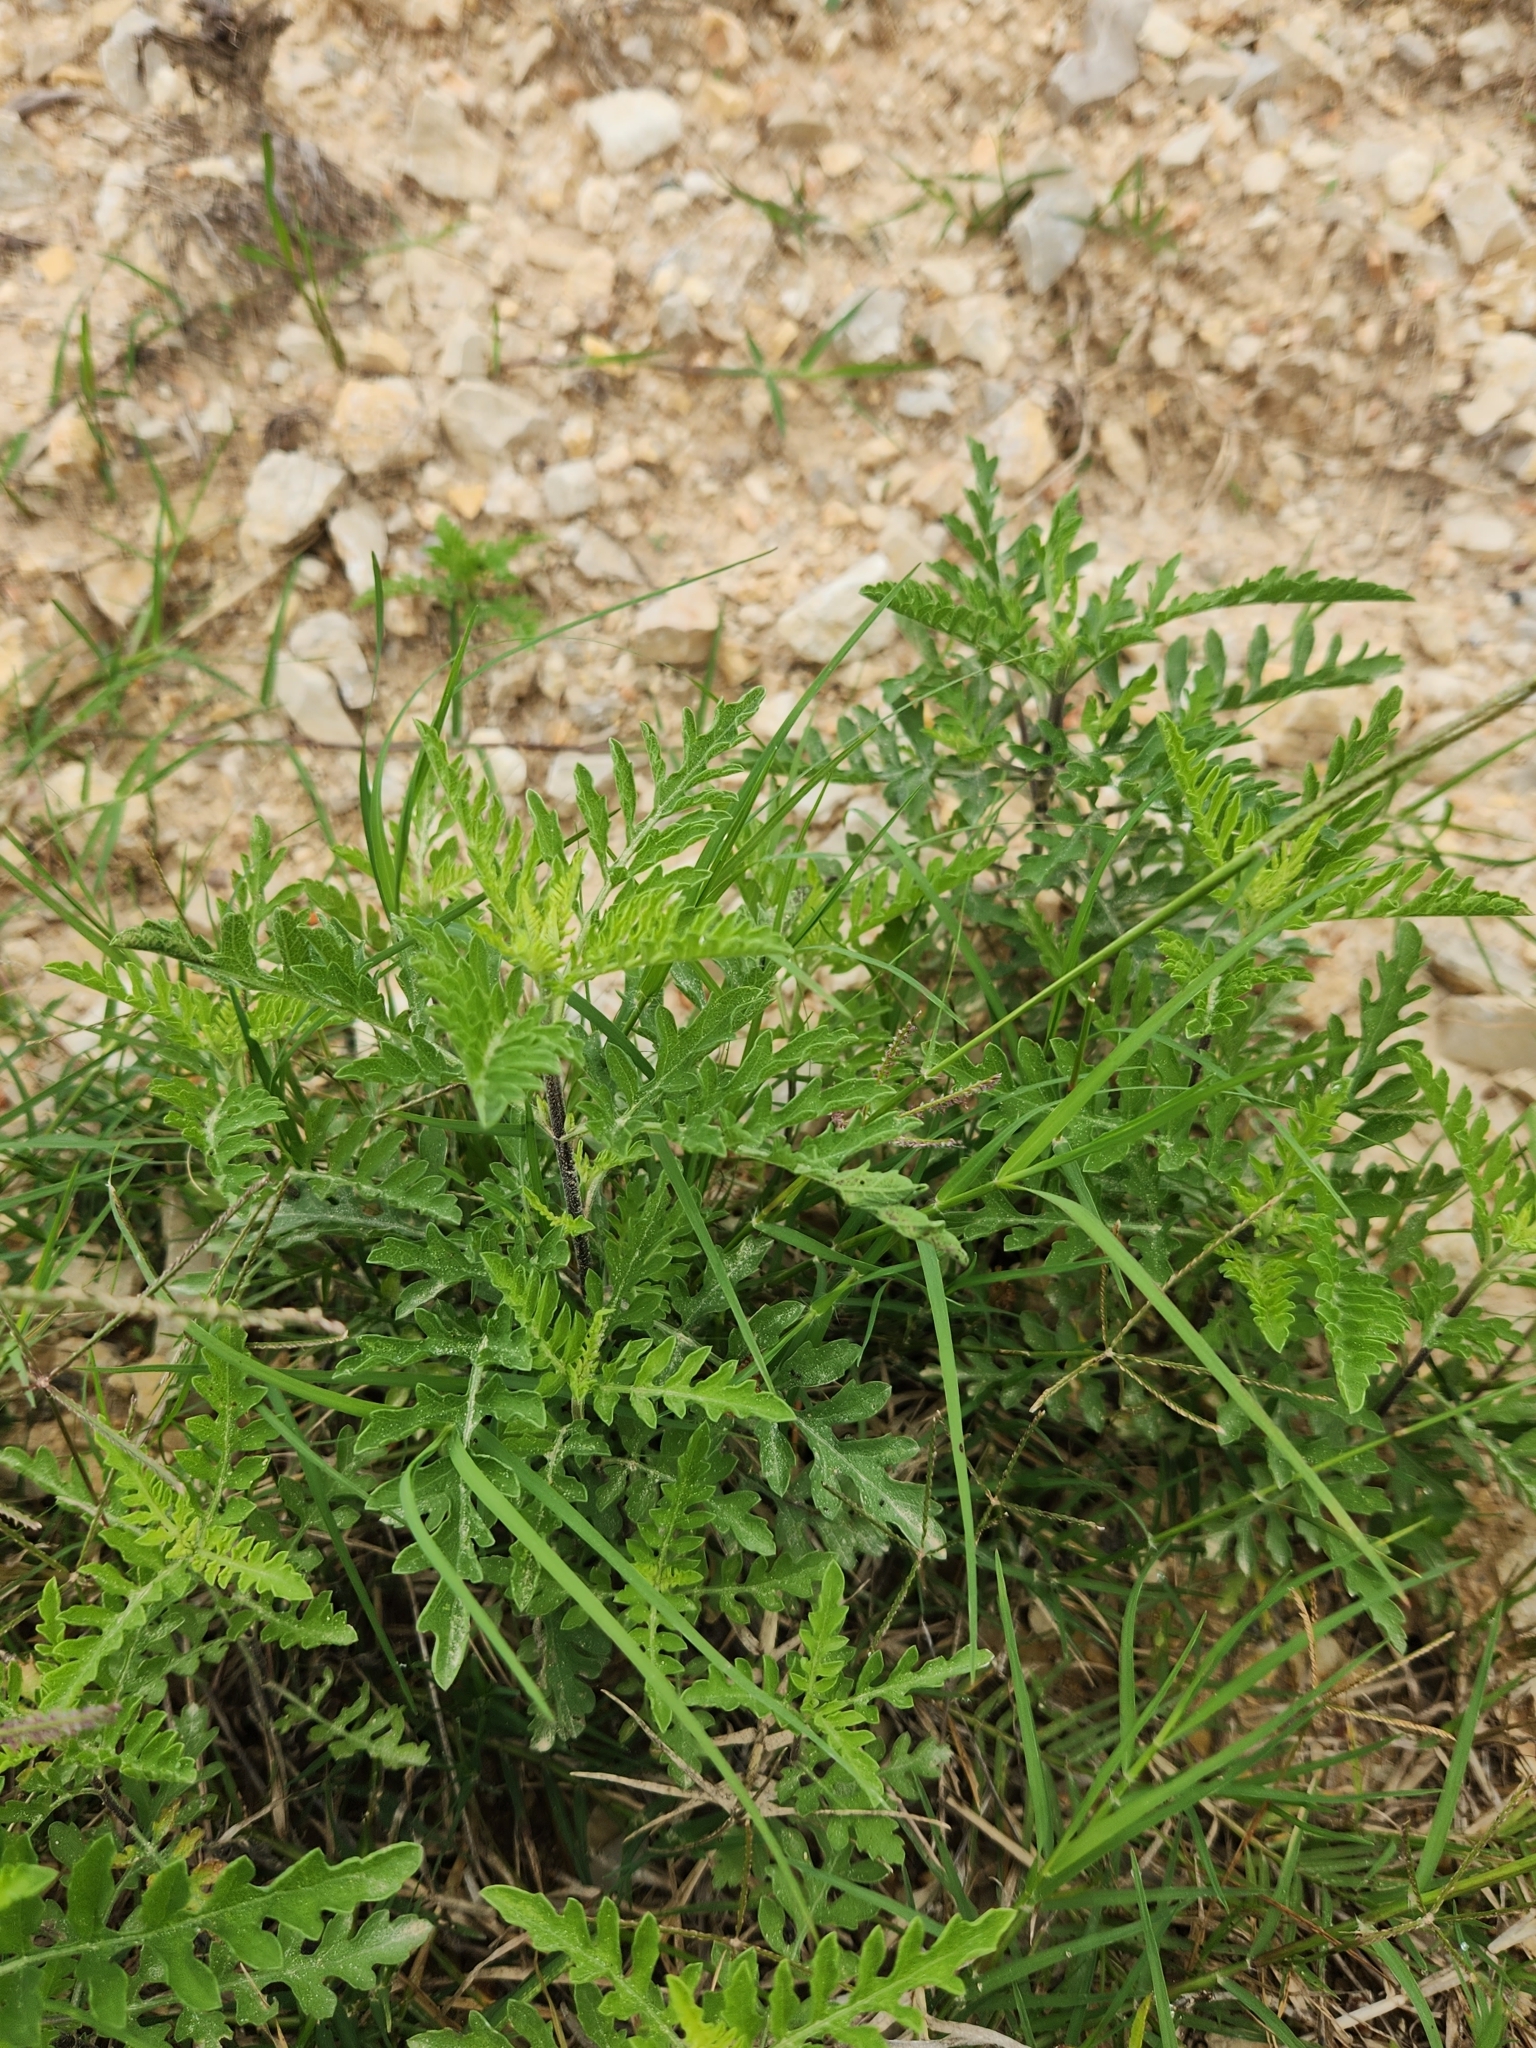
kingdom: Plantae
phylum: Tracheophyta
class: Magnoliopsida
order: Asterales
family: Asteraceae
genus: Ambrosia
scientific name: Ambrosia psilostachya
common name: Perennial ragweed
